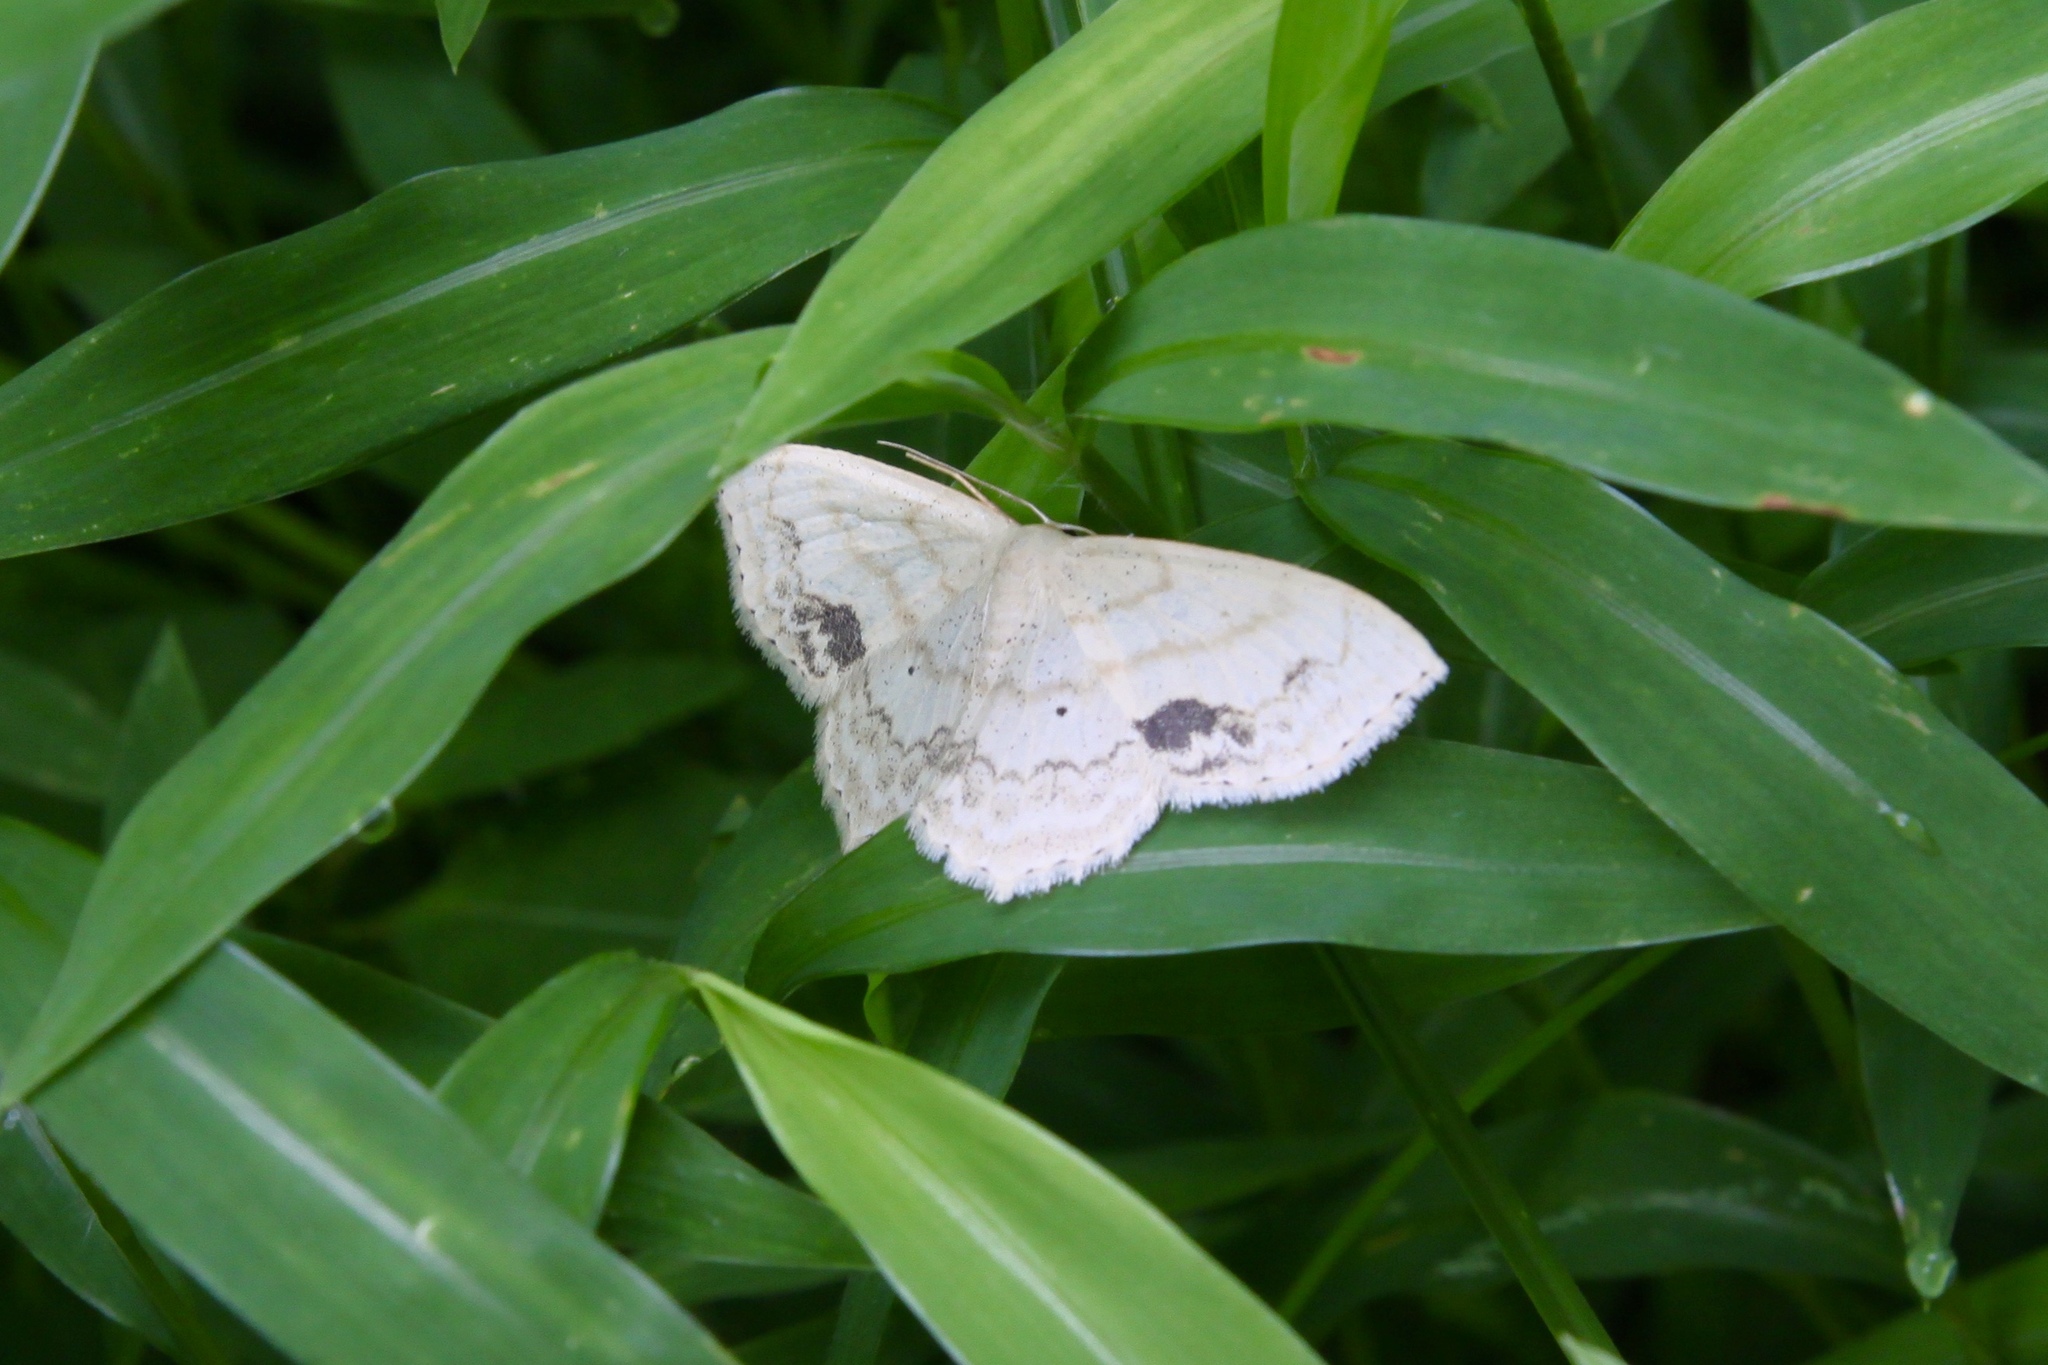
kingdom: Animalia
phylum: Arthropoda
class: Insecta
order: Lepidoptera
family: Geometridae
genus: Scopula
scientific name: Scopula limboundata
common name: Large lace border
